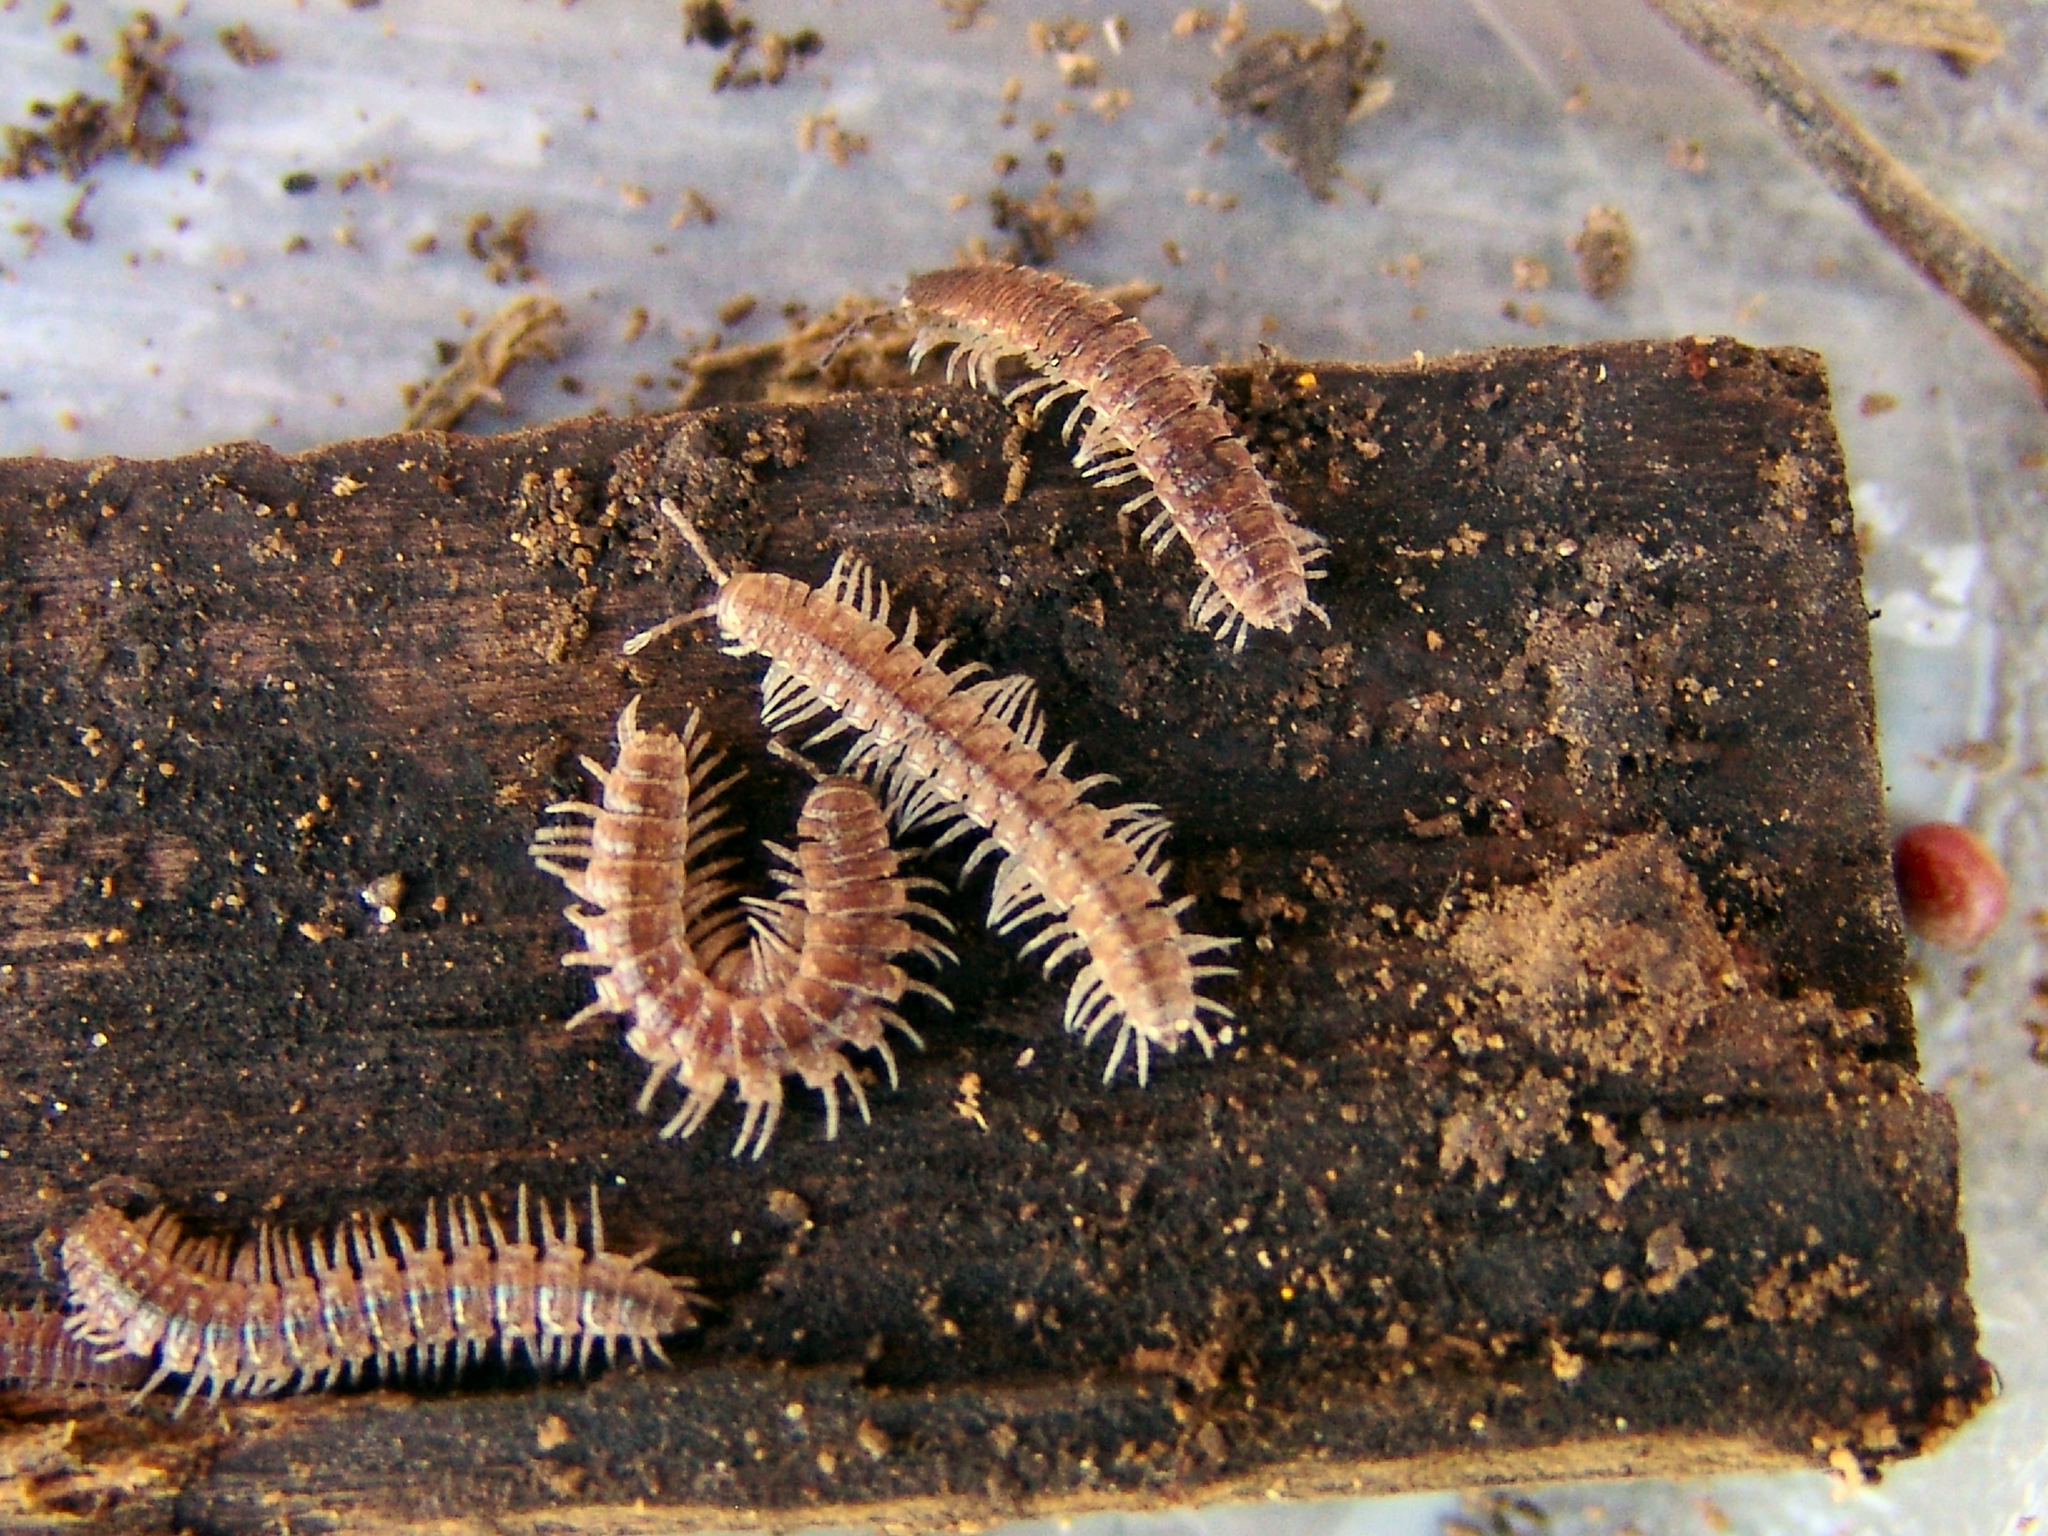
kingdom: Animalia
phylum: Arthropoda
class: Diplopoda
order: Polydesmida
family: Polydesmidae
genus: Pseudopolydesmus
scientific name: Pseudopolydesmus pinetorum
